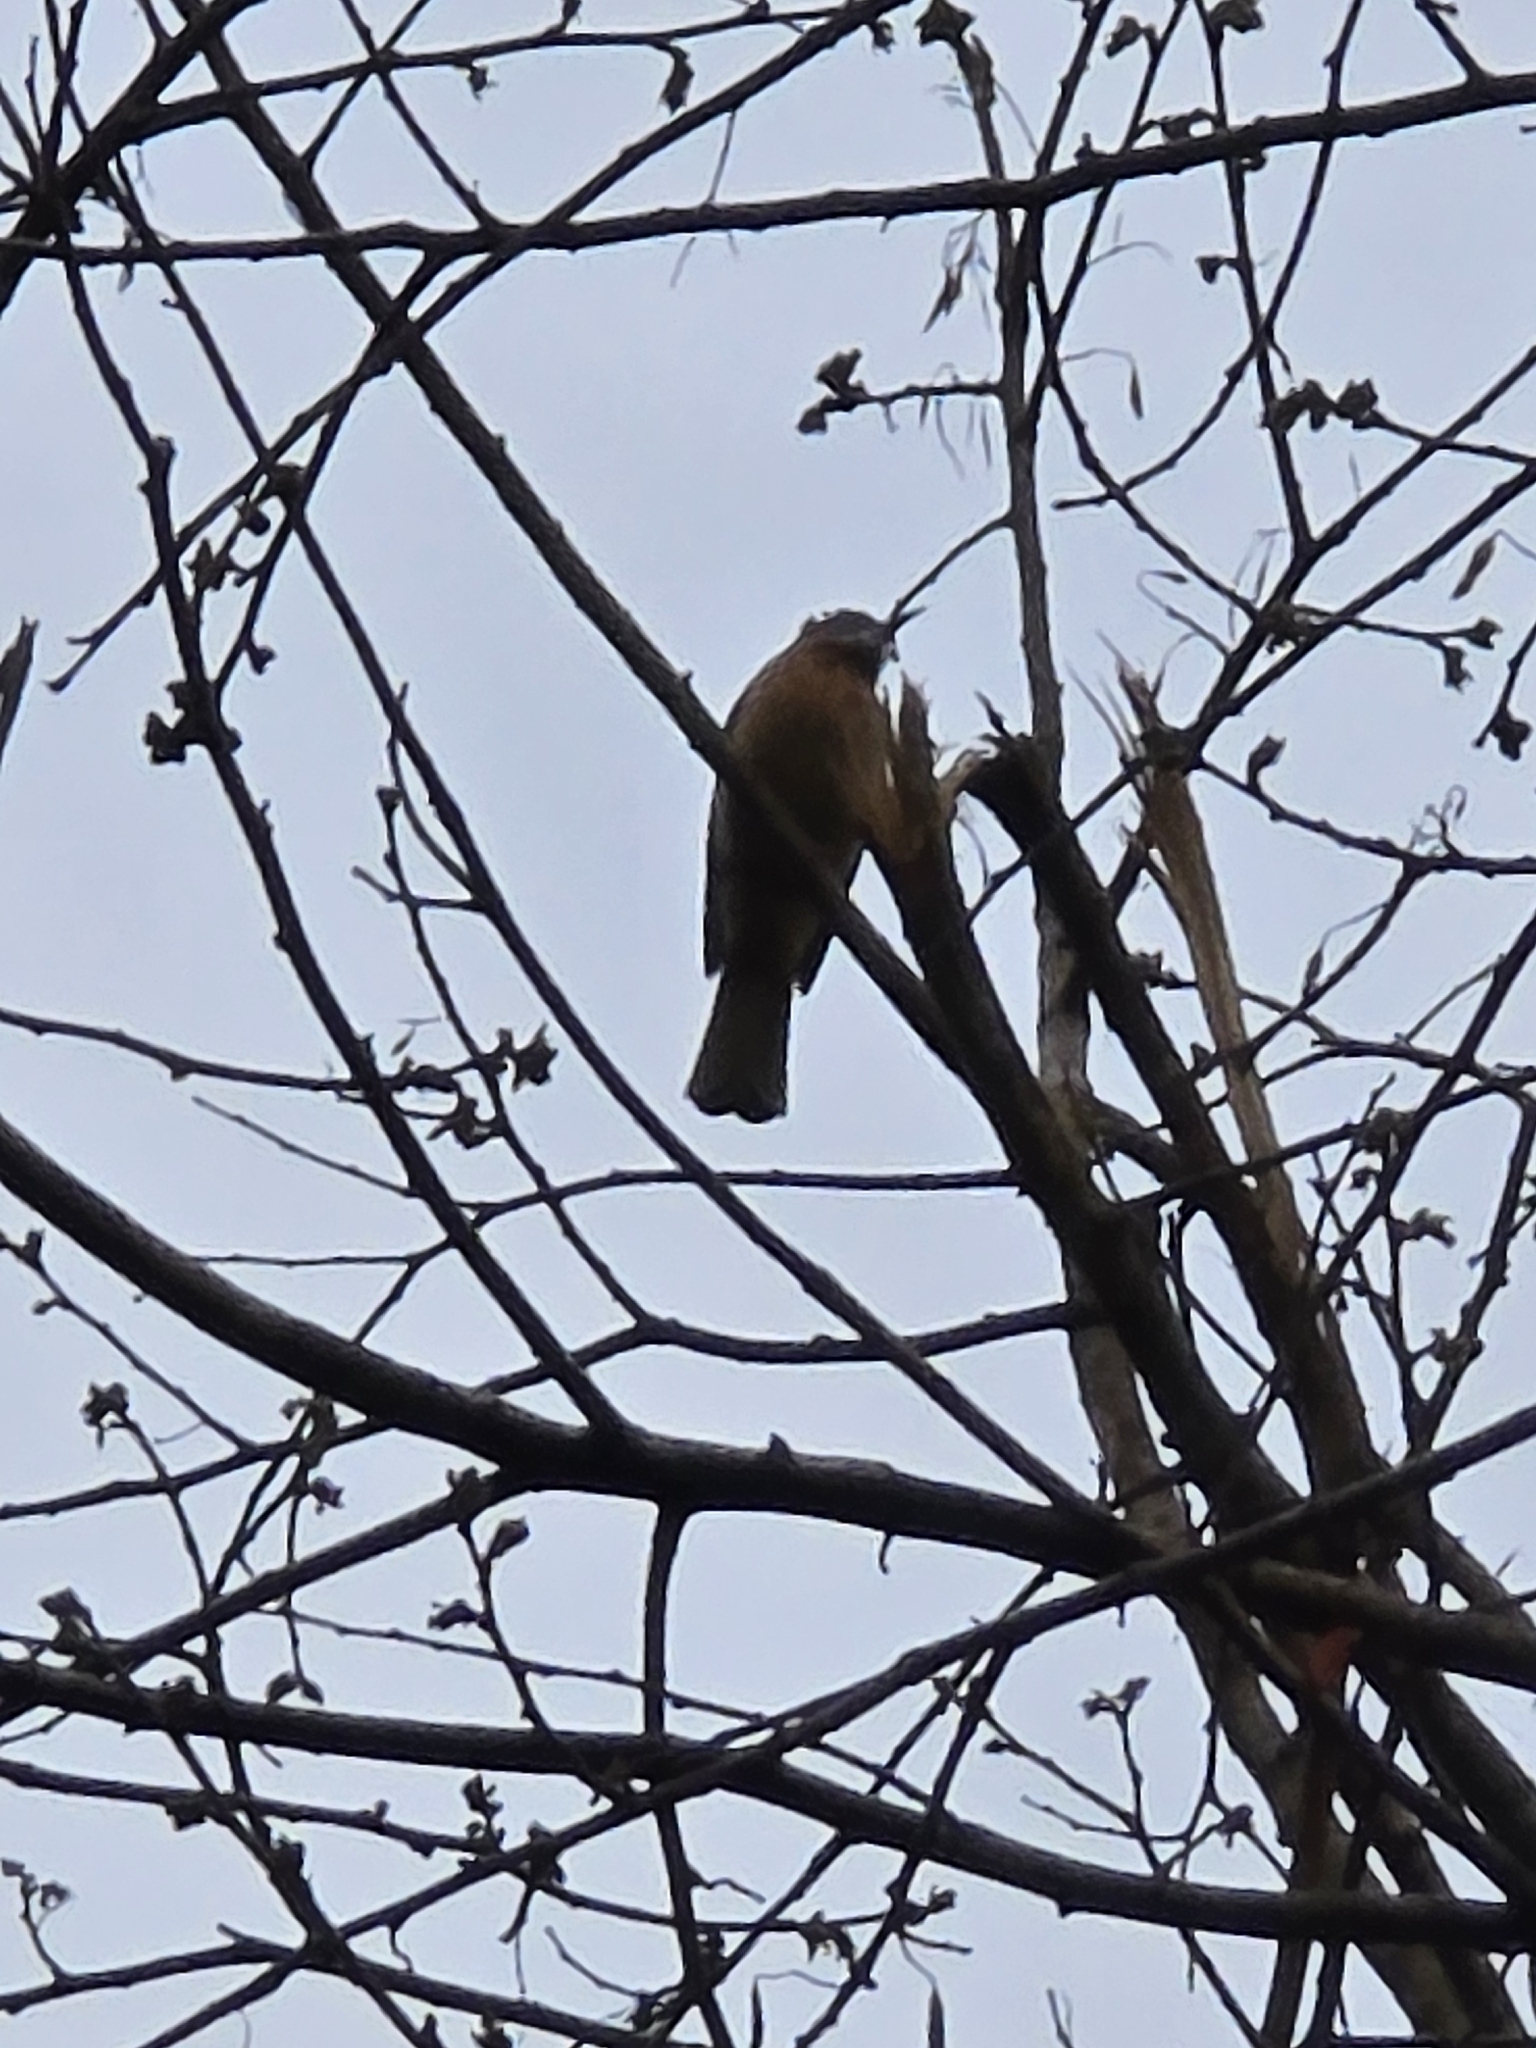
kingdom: Animalia
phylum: Chordata
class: Aves
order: Passeriformes
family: Pycnonotidae
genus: Ixos
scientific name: Ixos mcclellandii
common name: Mountain bulbul
